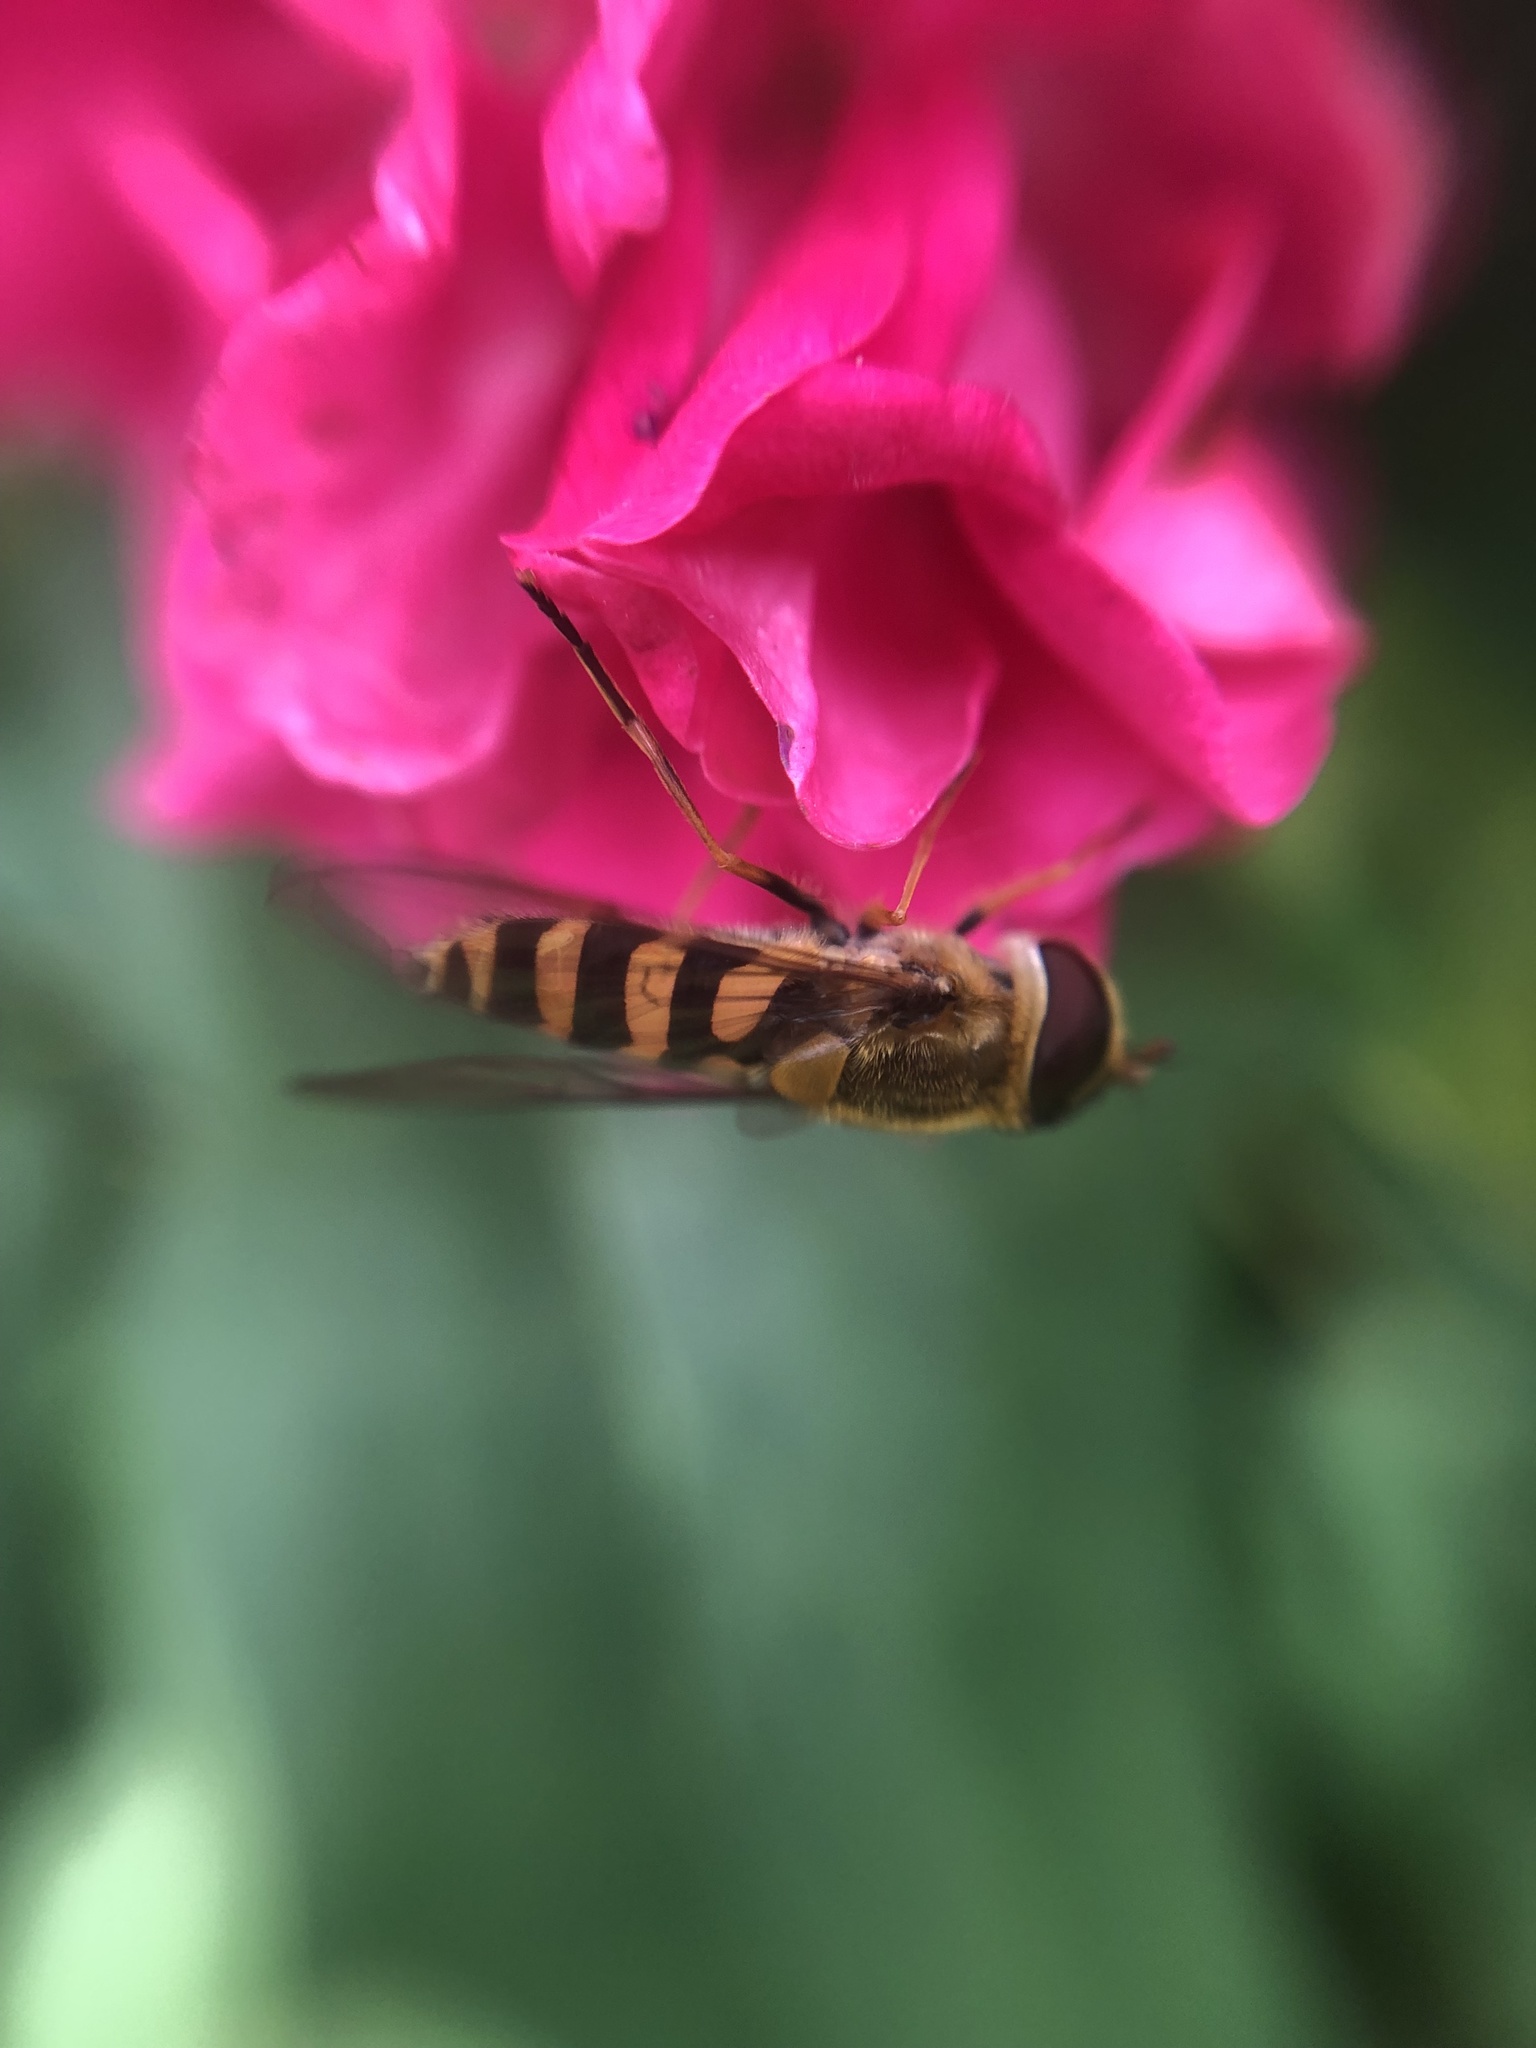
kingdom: Animalia
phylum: Arthropoda
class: Insecta
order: Diptera
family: Syrphidae
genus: Syrphus
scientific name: Syrphus
